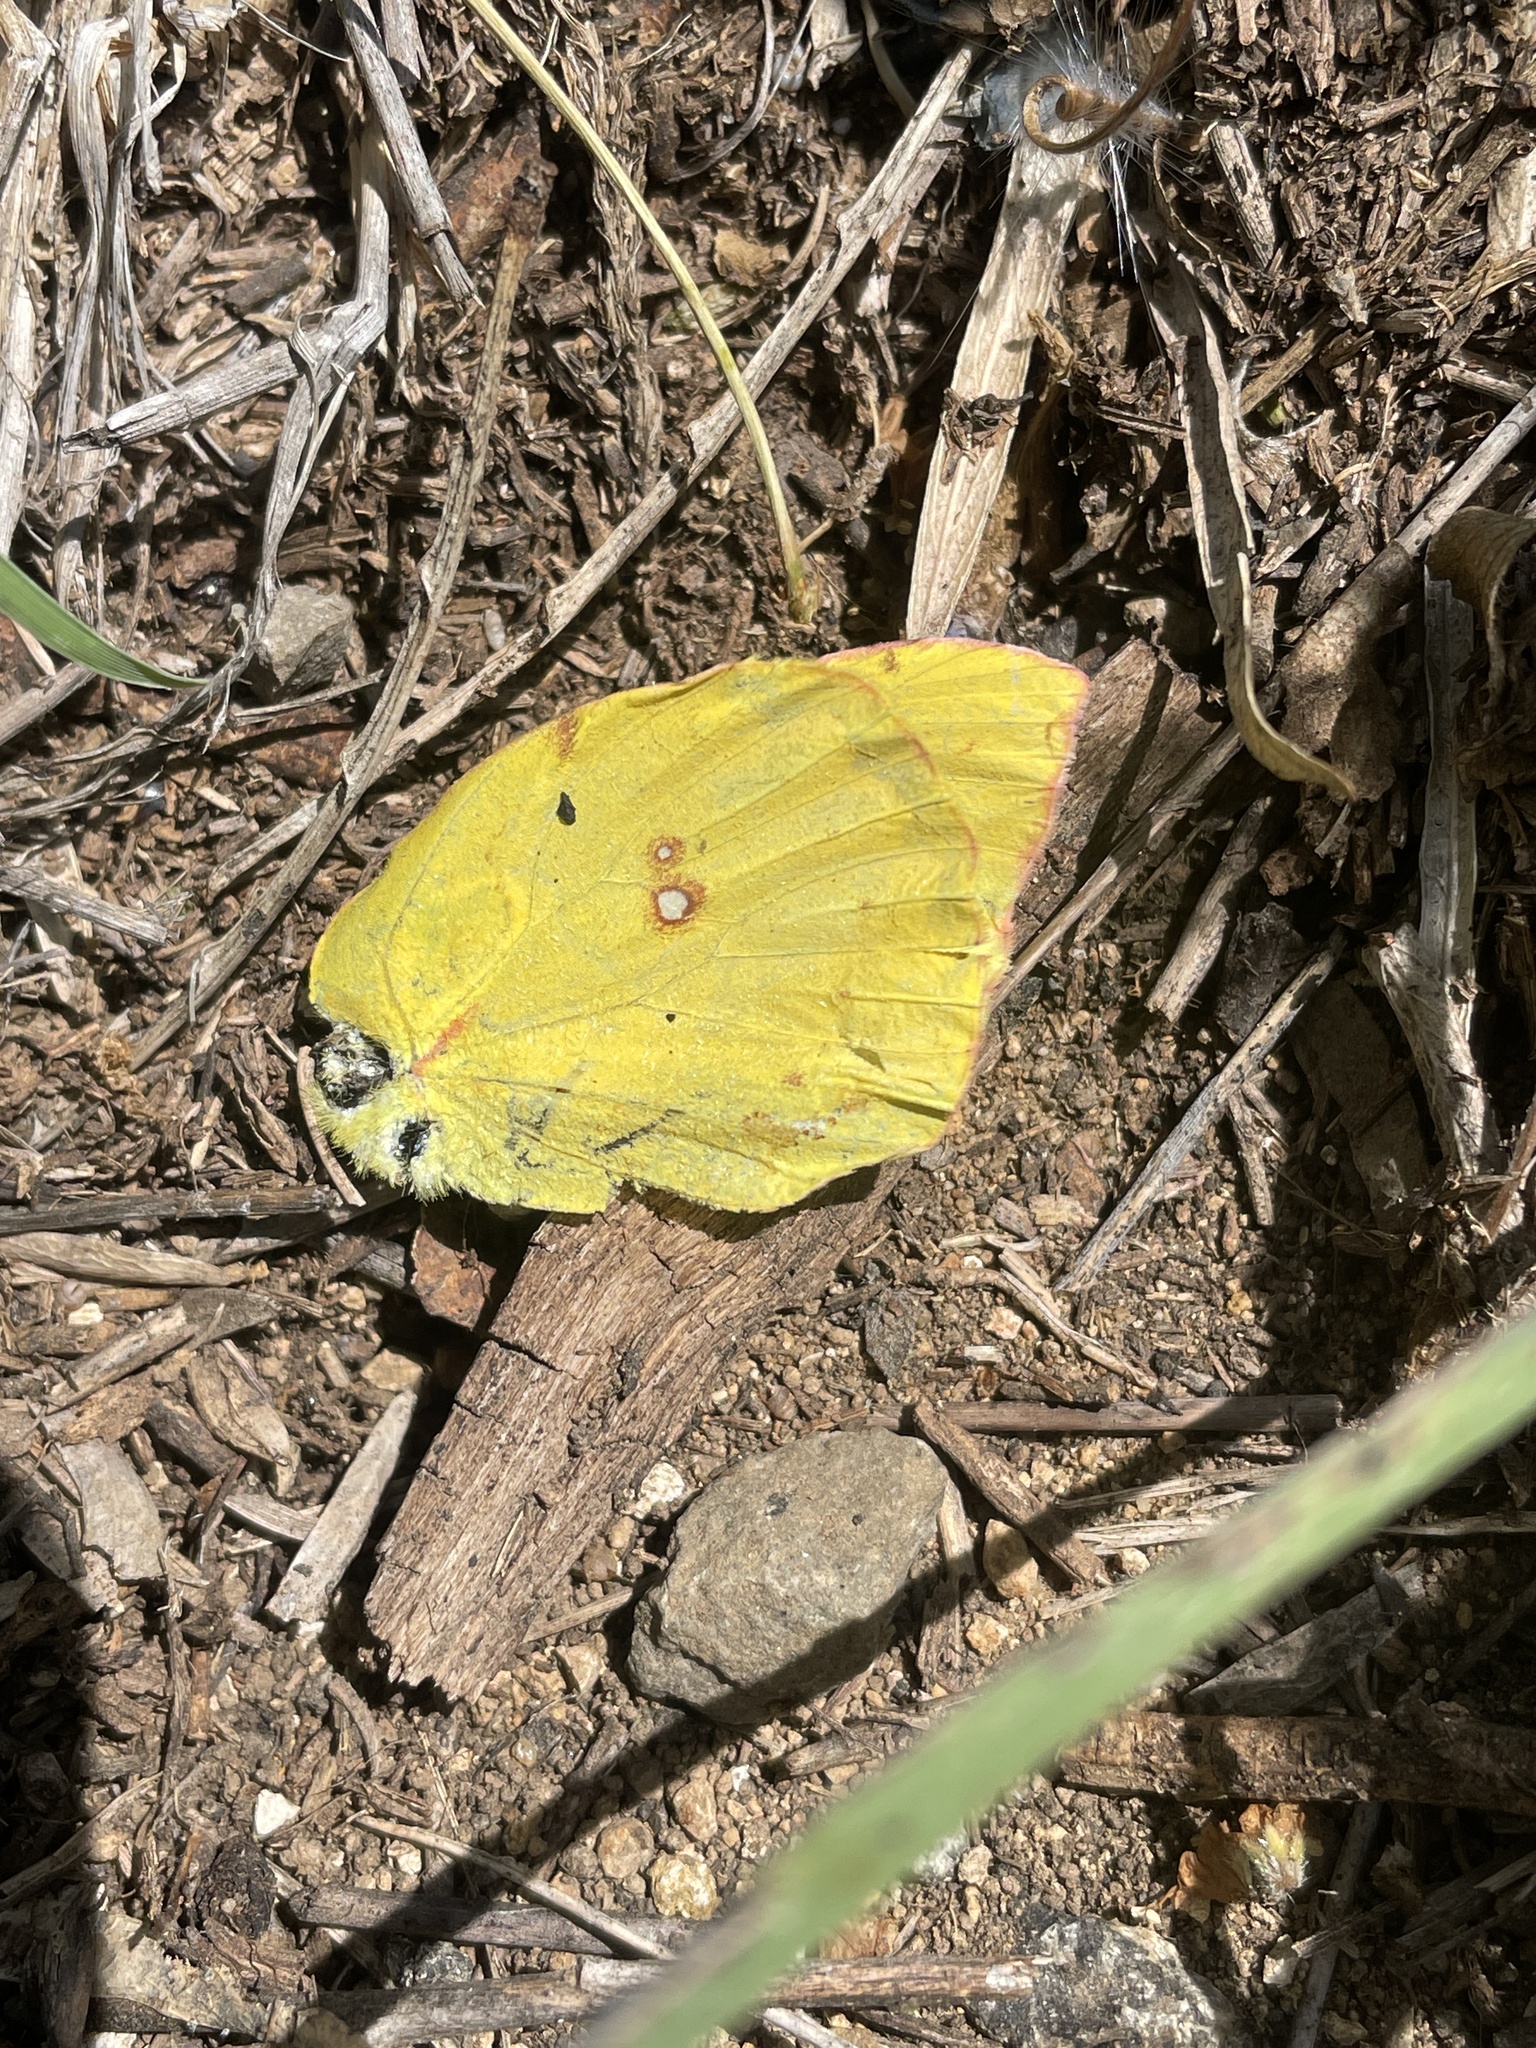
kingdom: Animalia
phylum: Arthropoda
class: Insecta
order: Lepidoptera
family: Pieridae
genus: Zerene
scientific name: Zerene cesonia
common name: Southern dogface
